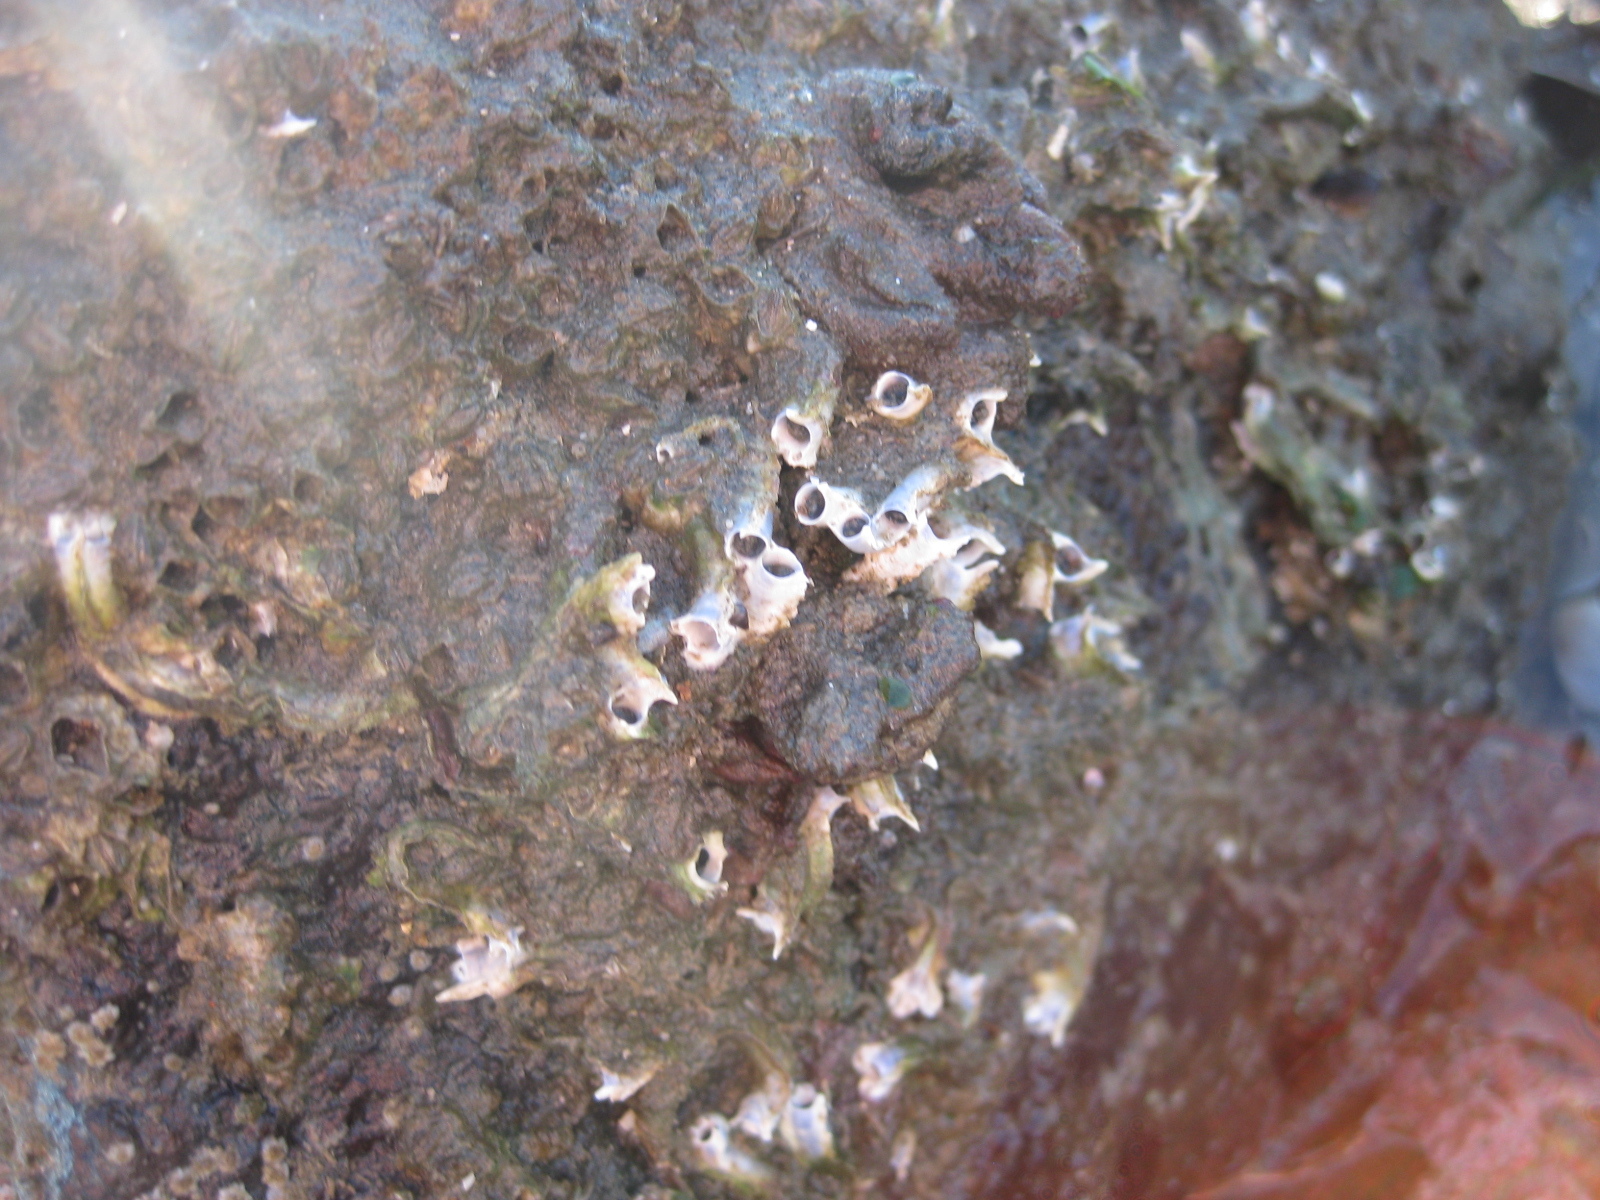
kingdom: Animalia
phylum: Annelida
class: Polychaeta
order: Sabellida
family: Serpulidae
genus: Spirobranchus
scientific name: Spirobranchus cariniferus
